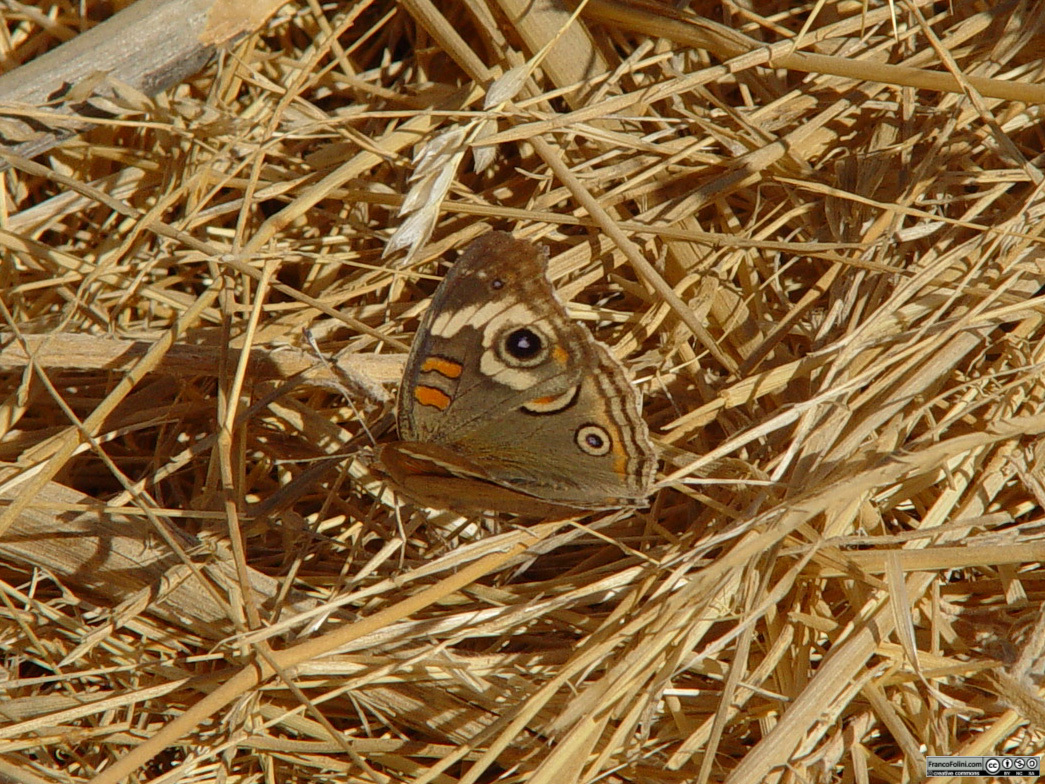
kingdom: Animalia
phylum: Arthropoda
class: Insecta
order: Lepidoptera
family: Nymphalidae
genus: Junonia
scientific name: Junonia grisea
